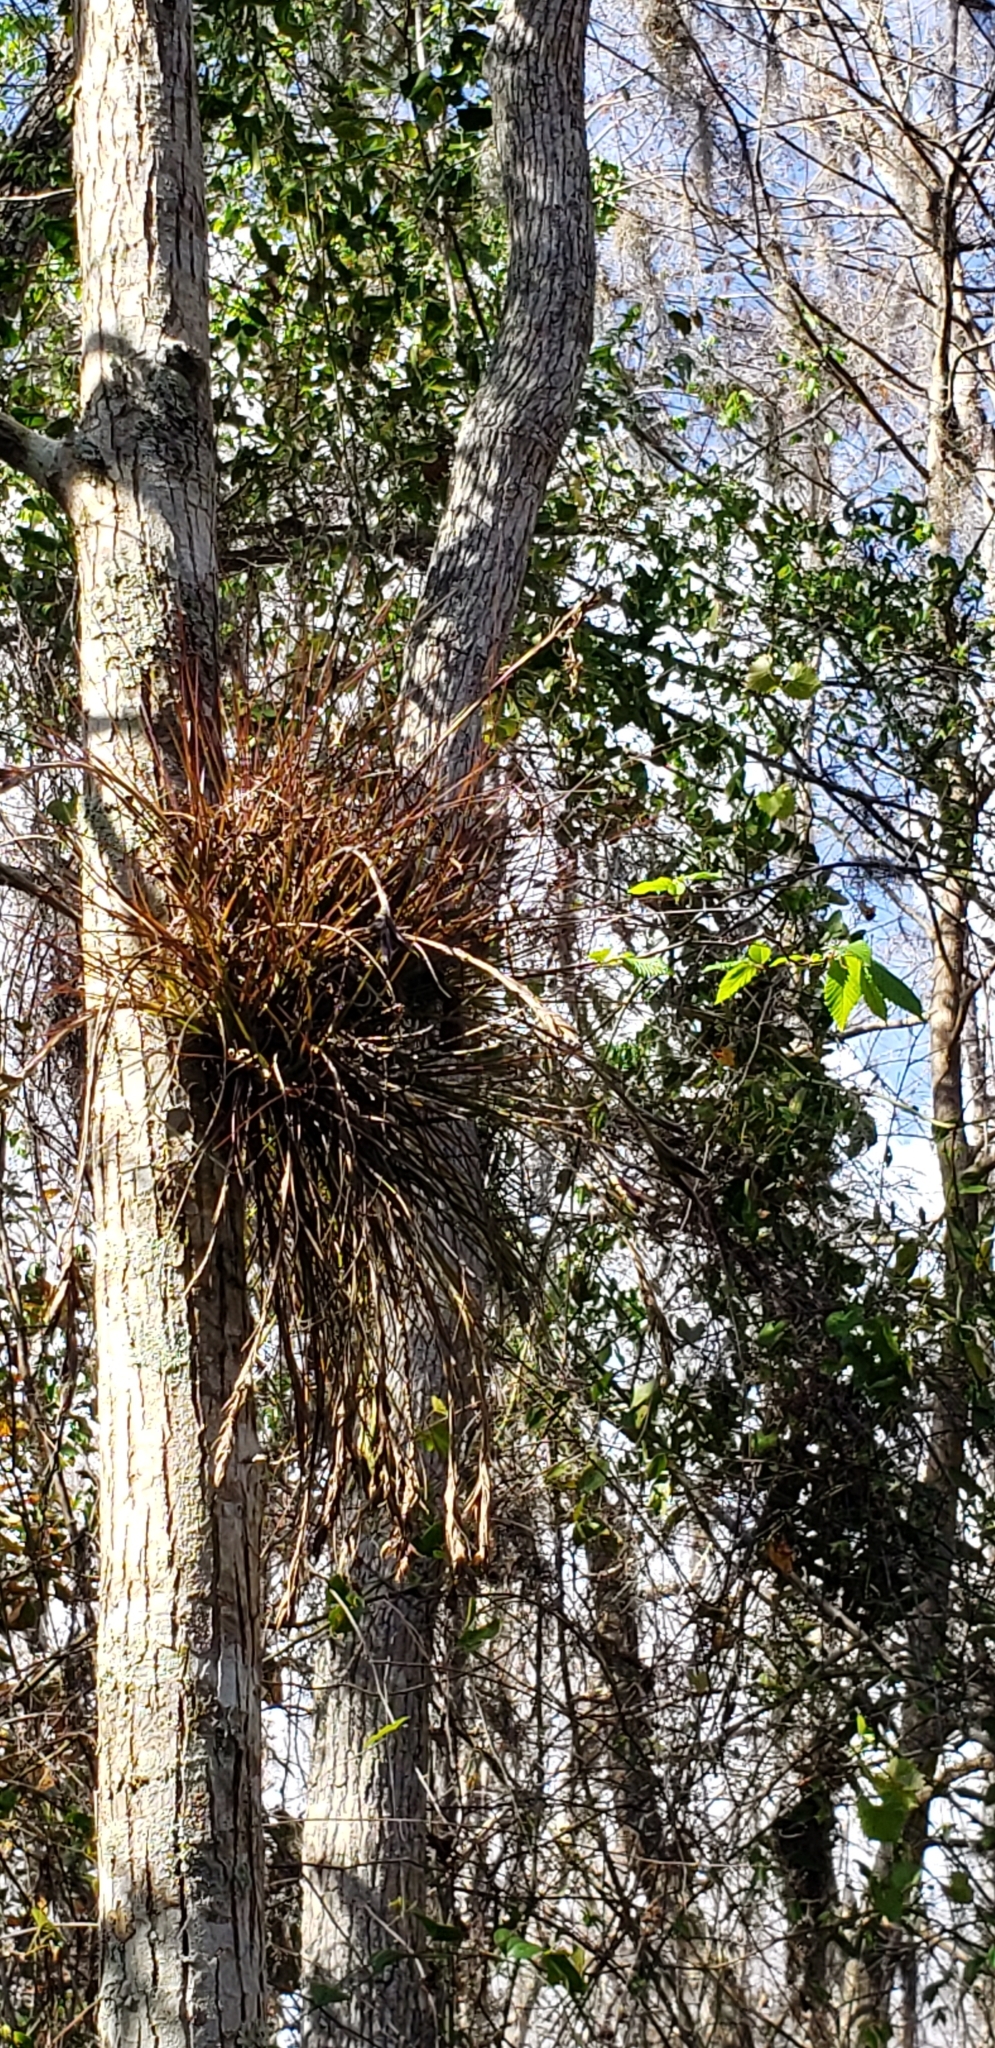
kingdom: Plantae
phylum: Tracheophyta
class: Liliopsida
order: Poales
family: Bromeliaceae
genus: Tillandsia
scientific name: Tillandsia setacea
